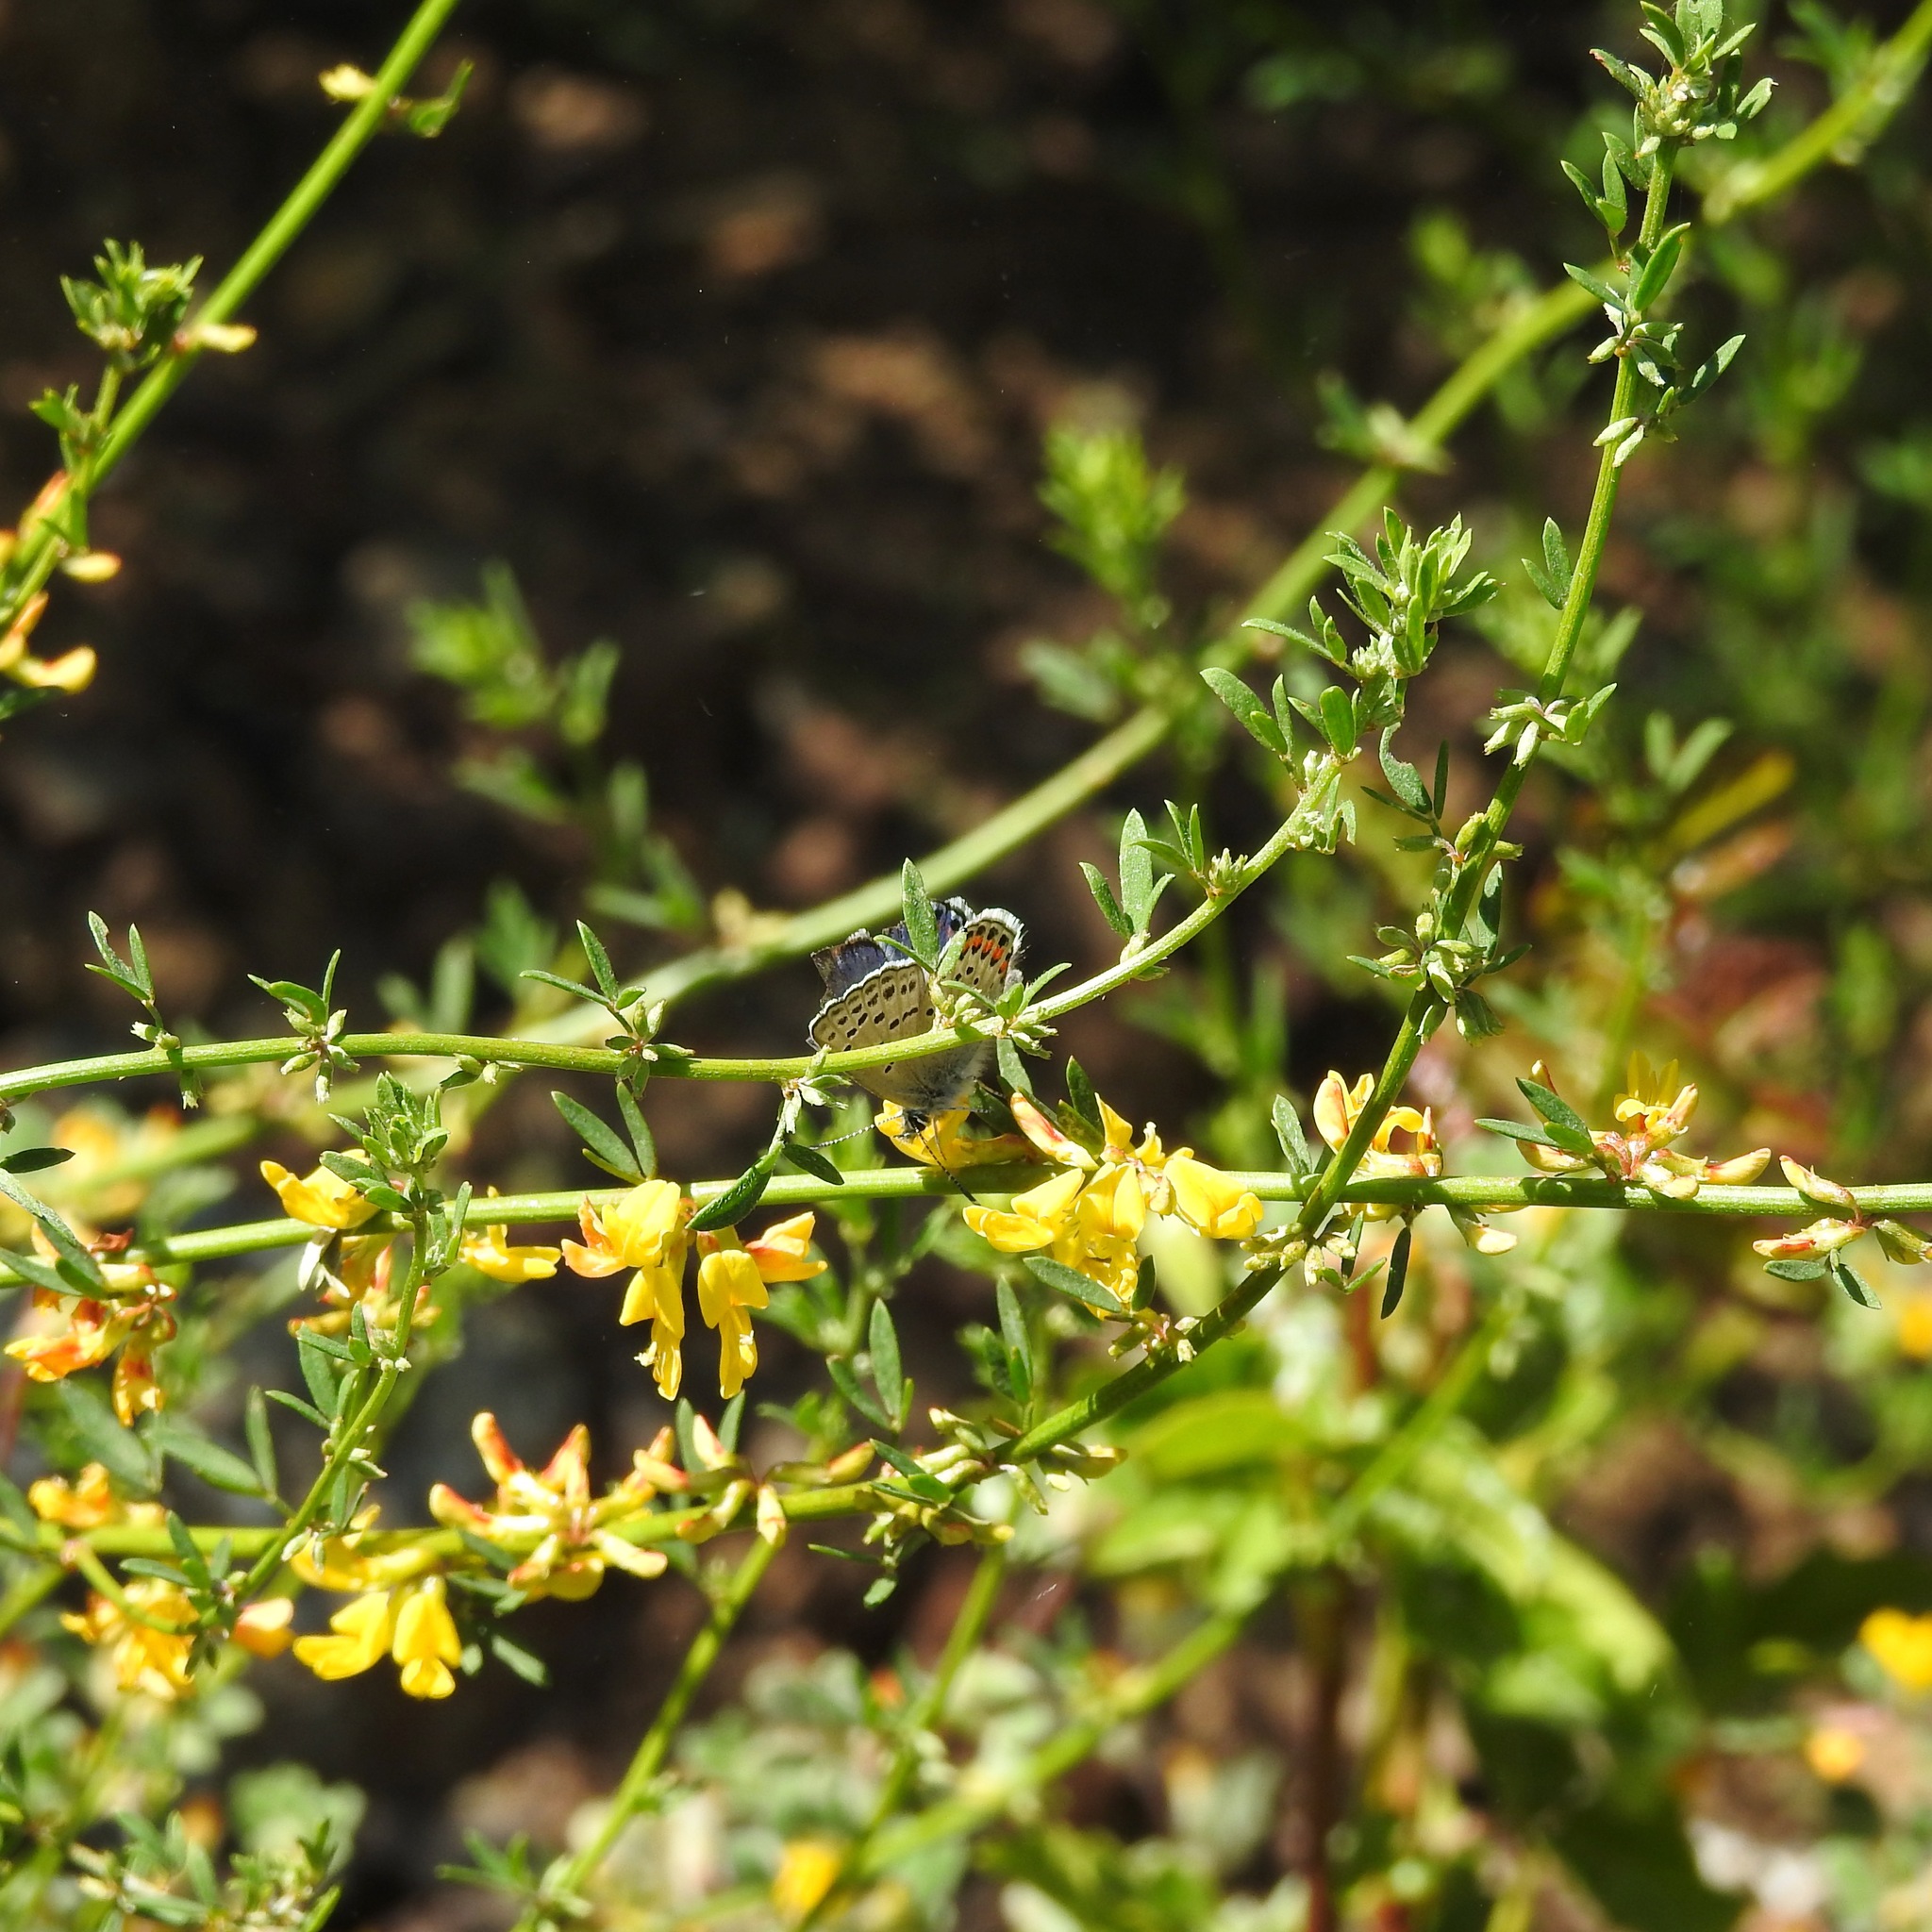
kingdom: Animalia
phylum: Arthropoda
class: Insecta
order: Lepidoptera
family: Lycaenidae
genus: Icaricia
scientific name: Icaricia acmon
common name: Acmon blue
